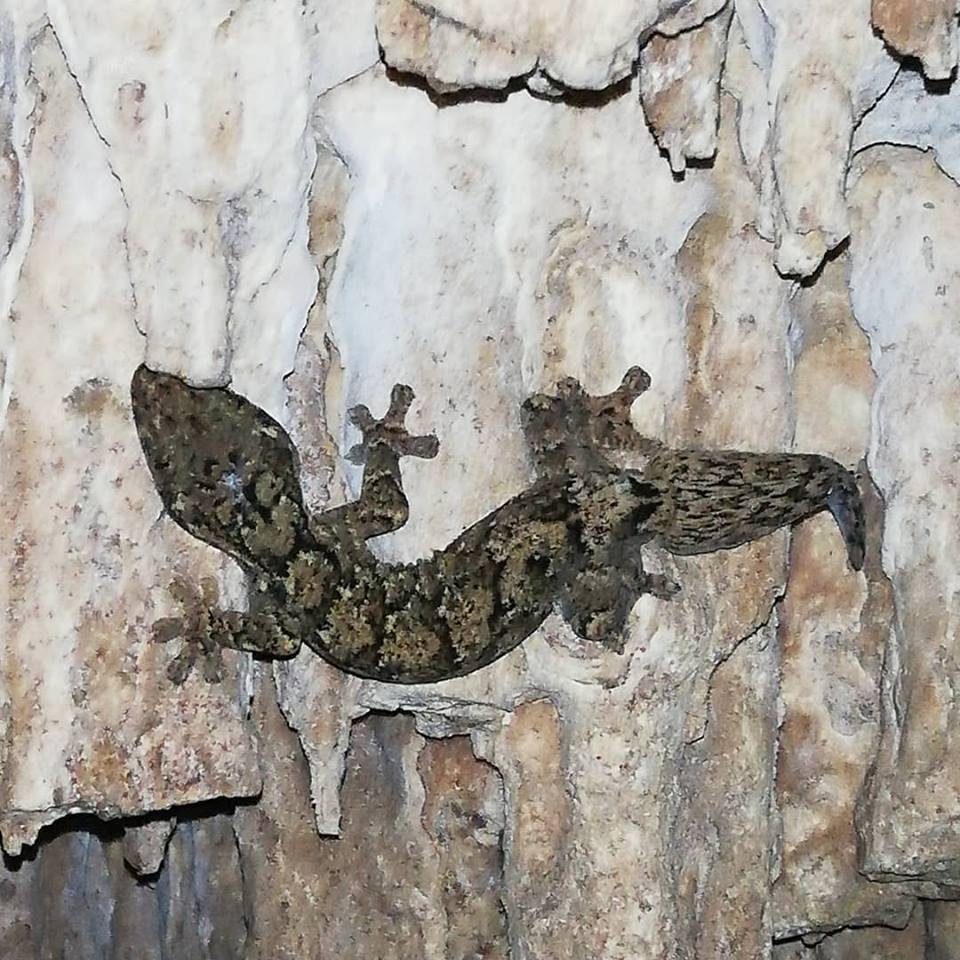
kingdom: Animalia
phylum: Chordata
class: Squamata
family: Phyllodactylidae
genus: Thecadactylus
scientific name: Thecadactylus rapicauda
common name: Turnip-tailed gecko
